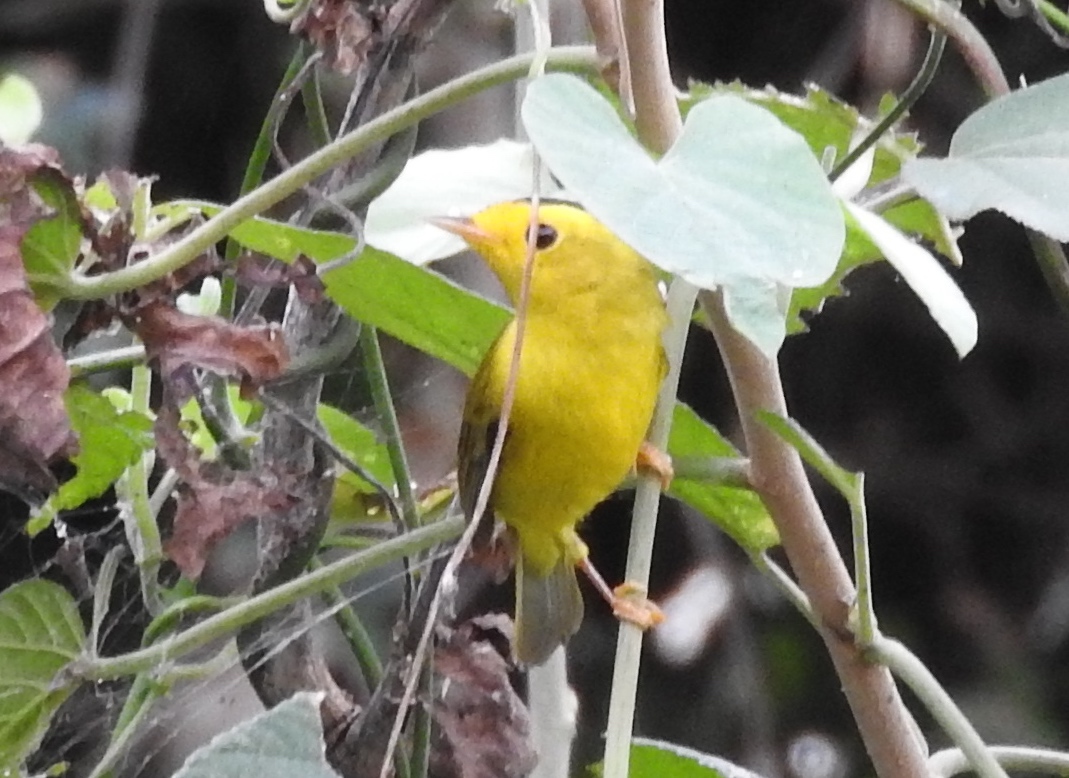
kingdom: Animalia
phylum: Chordata
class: Aves
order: Passeriformes
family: Parulidae
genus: Cardellina
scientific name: Cardellina pusilla
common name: Wilson's warbler
